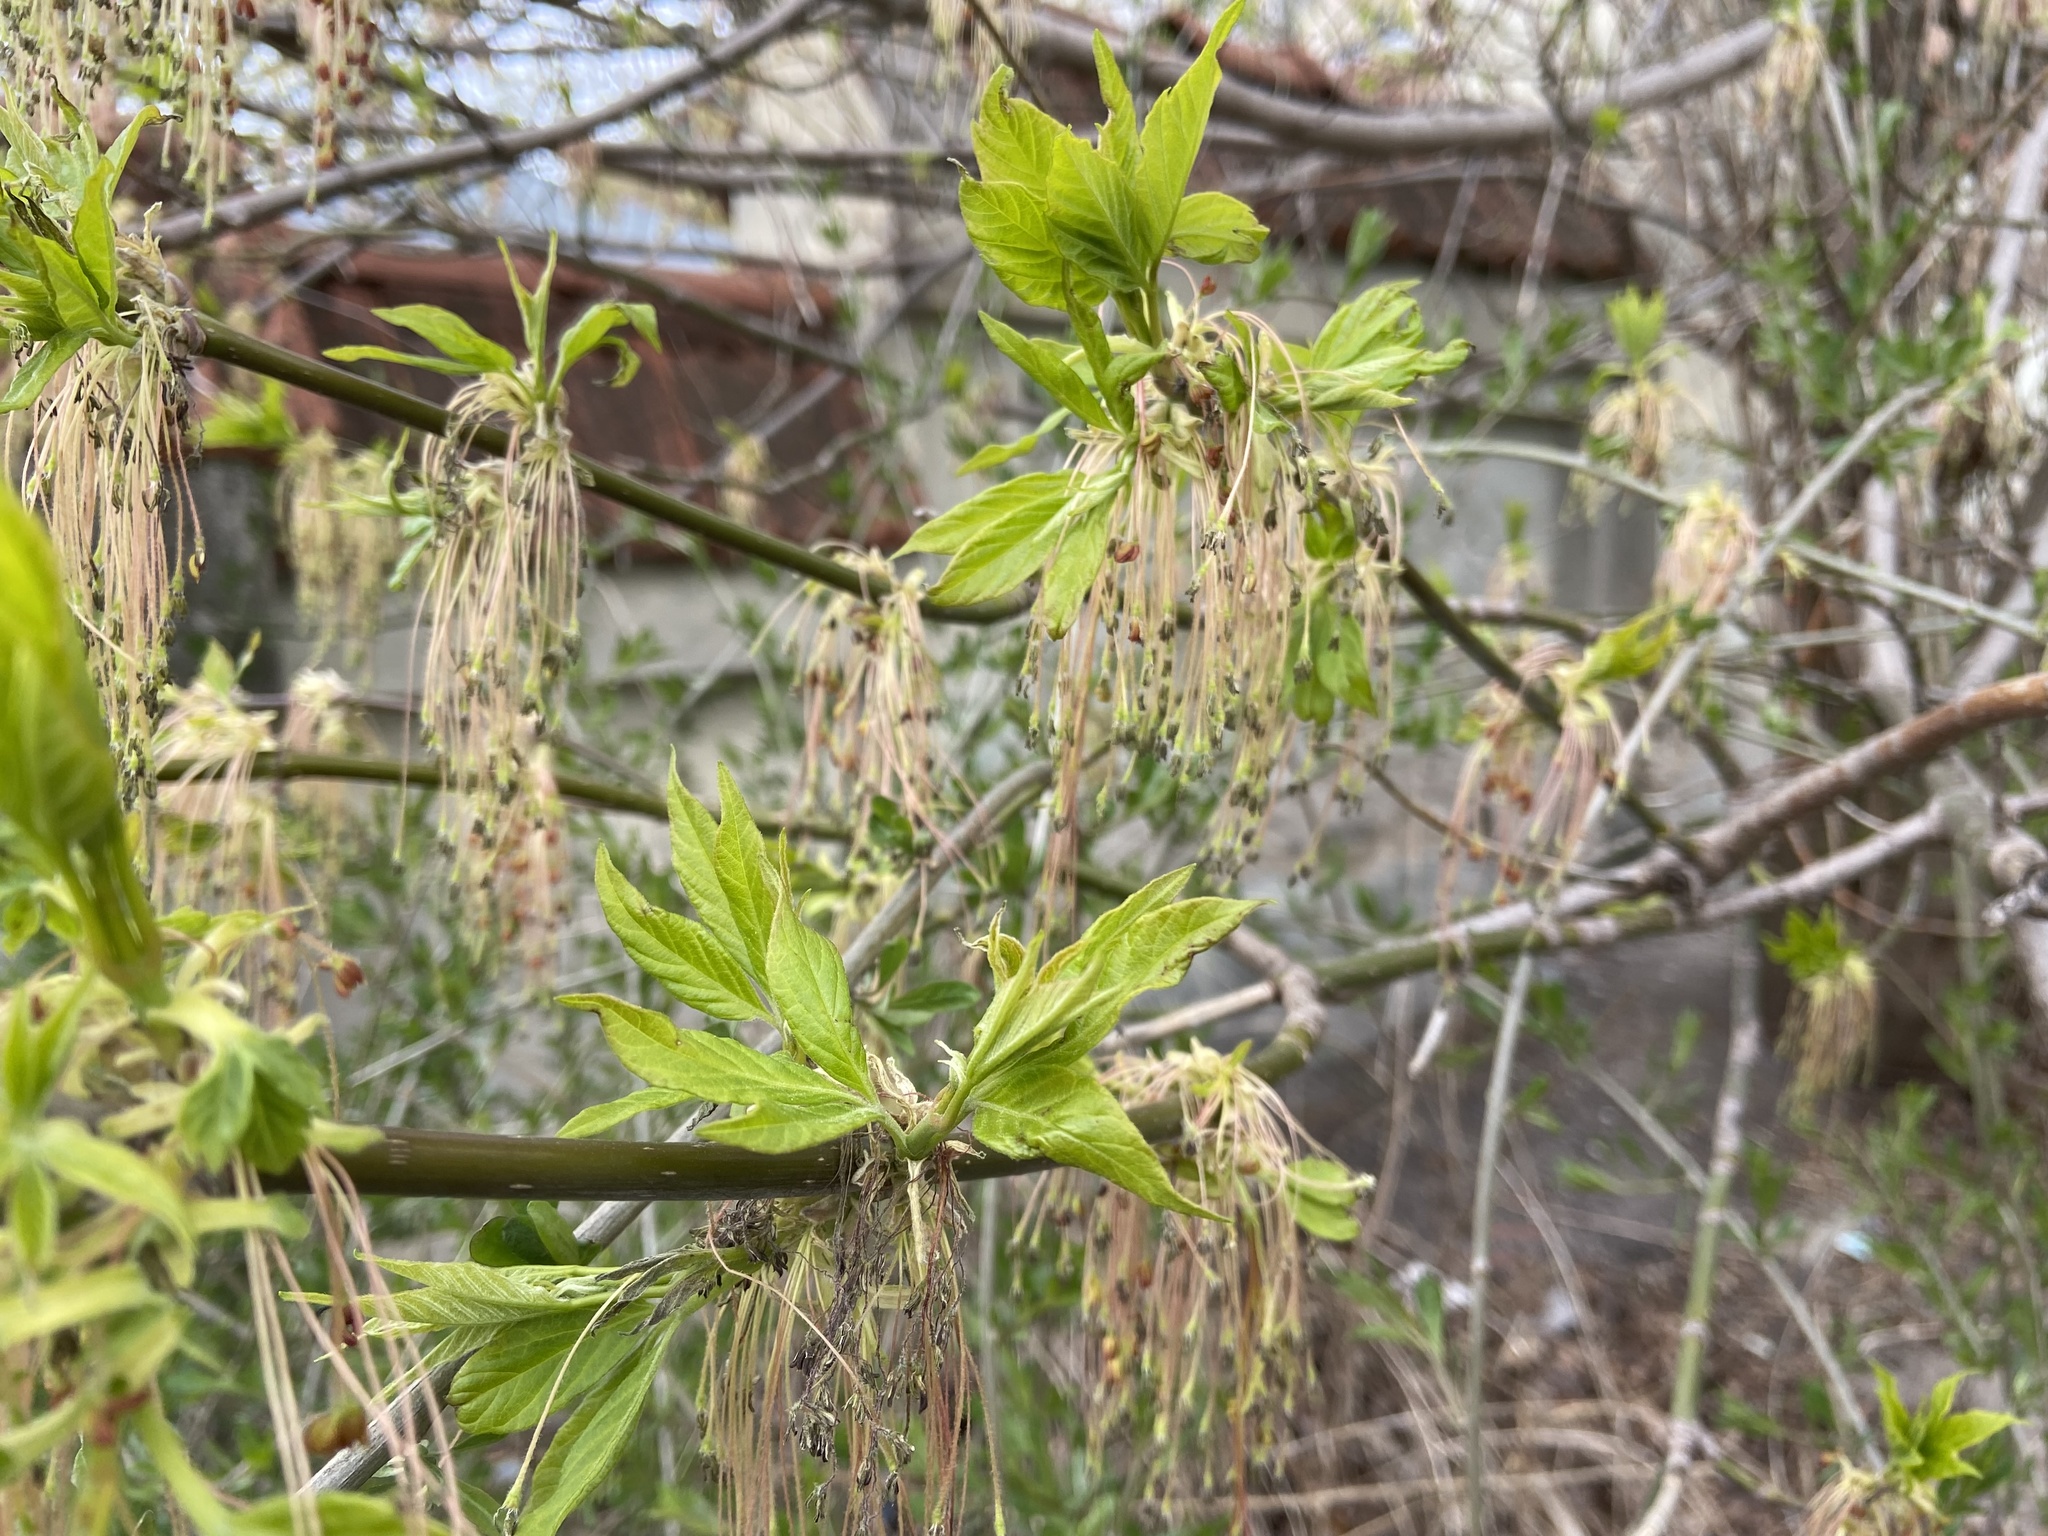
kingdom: Plantae
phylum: Tracheophyta
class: Magnoliopsida
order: Sapindales
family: Sapindaceae
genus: Acer
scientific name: Acer negundo
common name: Ashleaf maple
